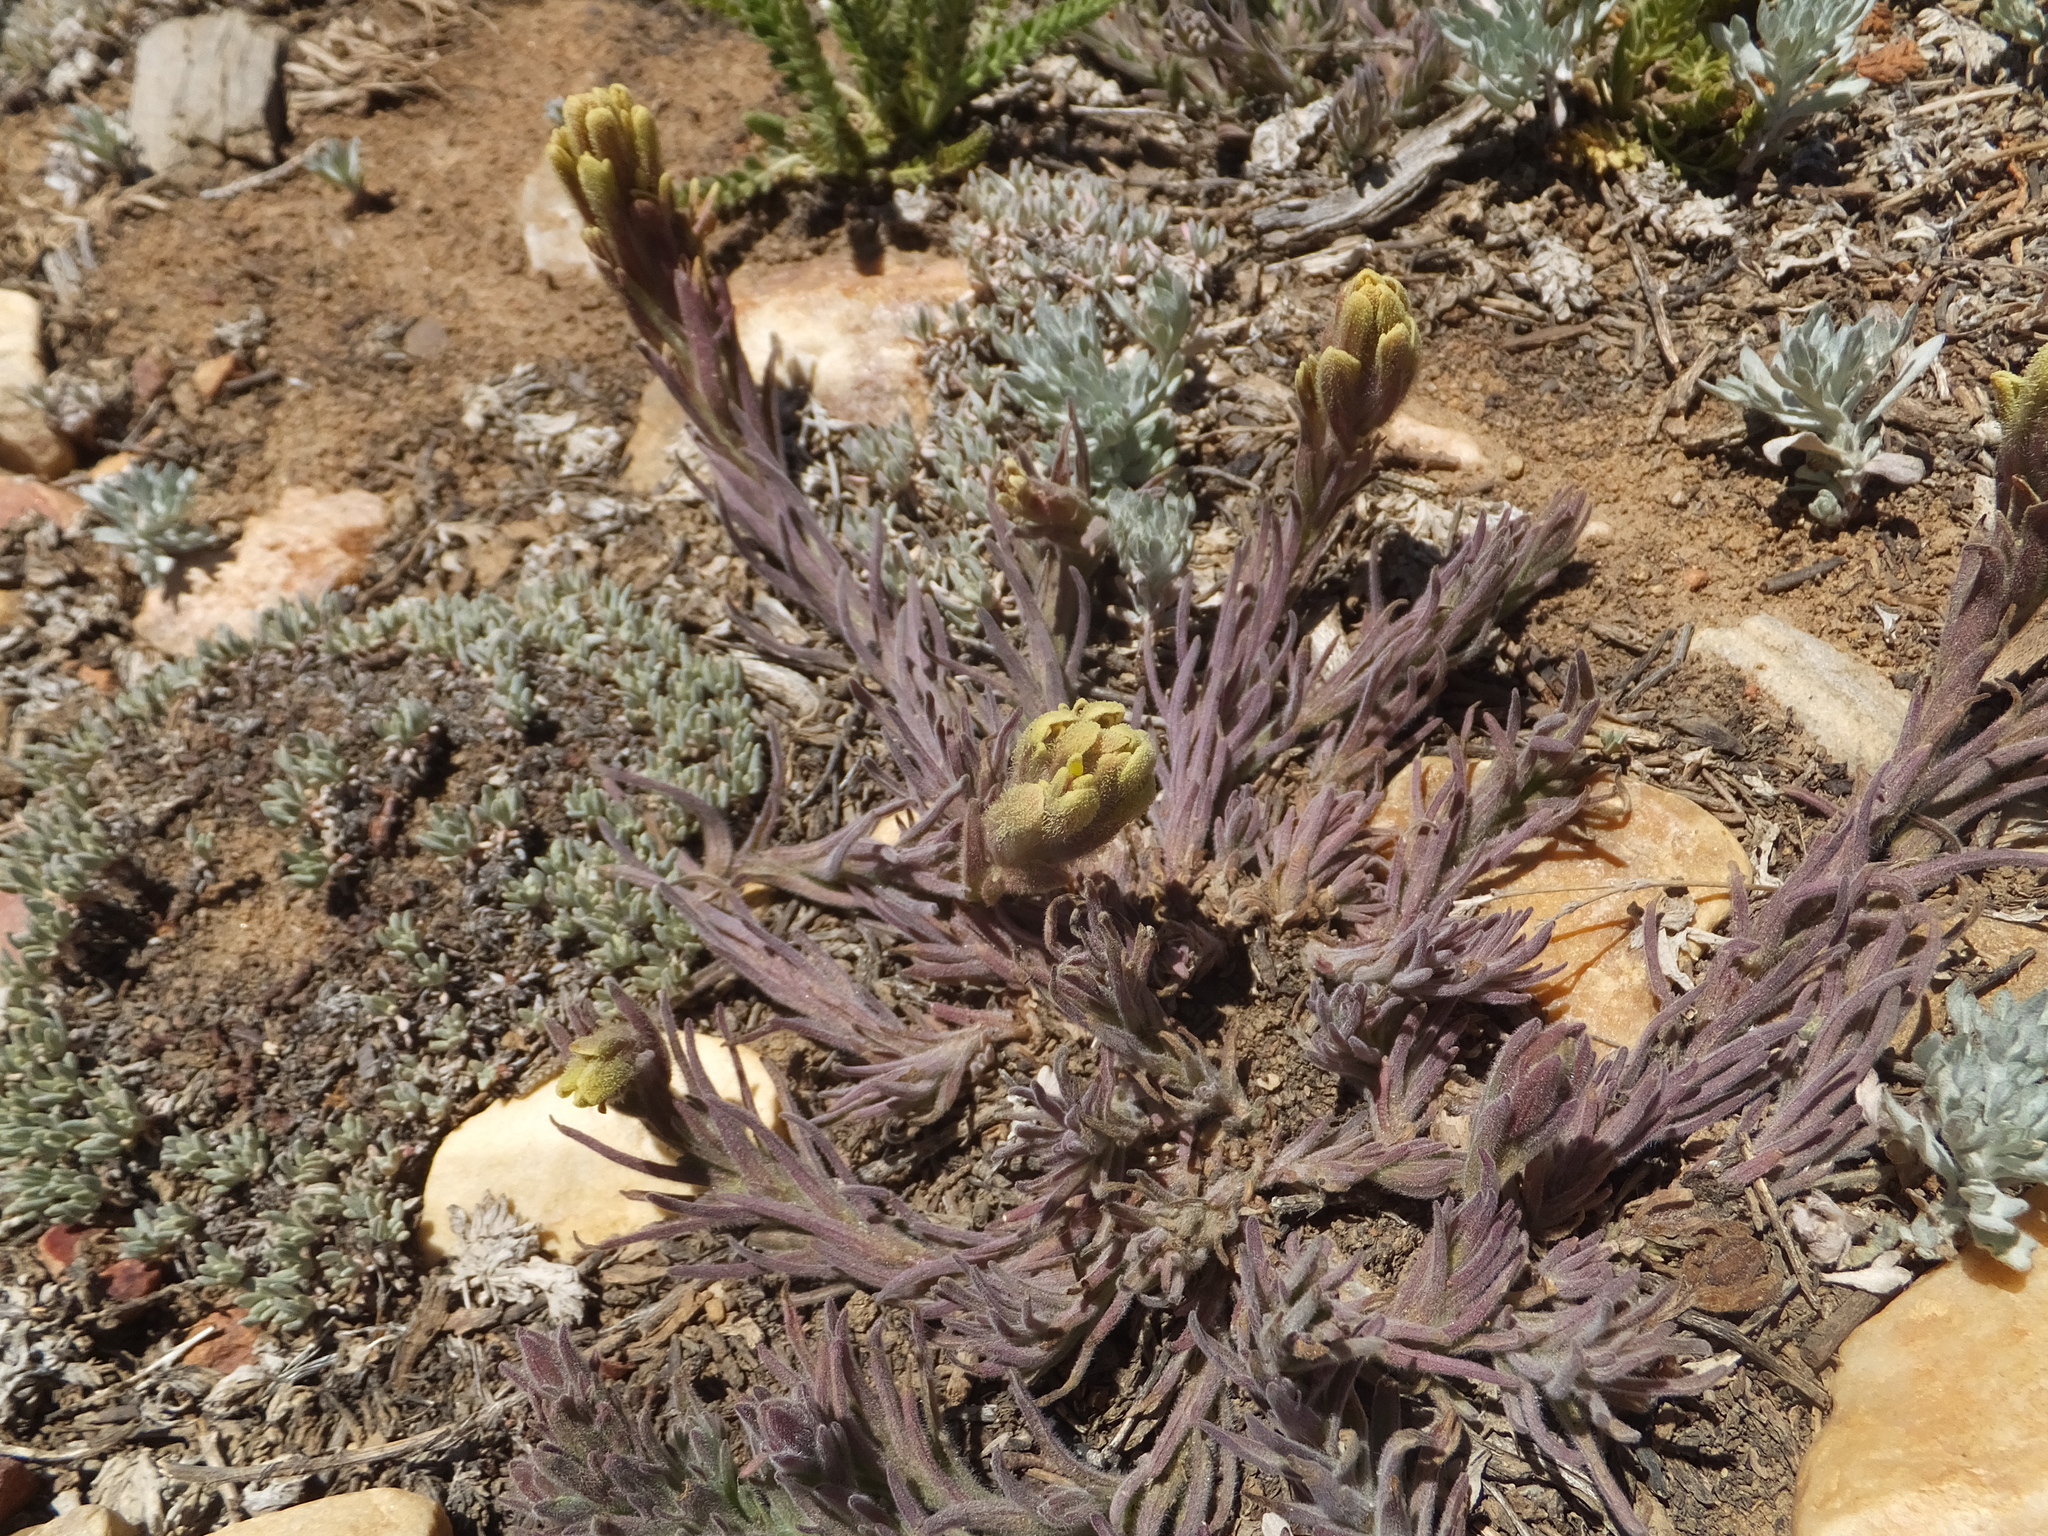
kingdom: Plantae
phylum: Tracheophyta
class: Magnoliopsida
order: Lamiales
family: Orobanchaceae
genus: Castilleja
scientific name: Castilleja cinerea
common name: Ash-gray indian paintbrush
